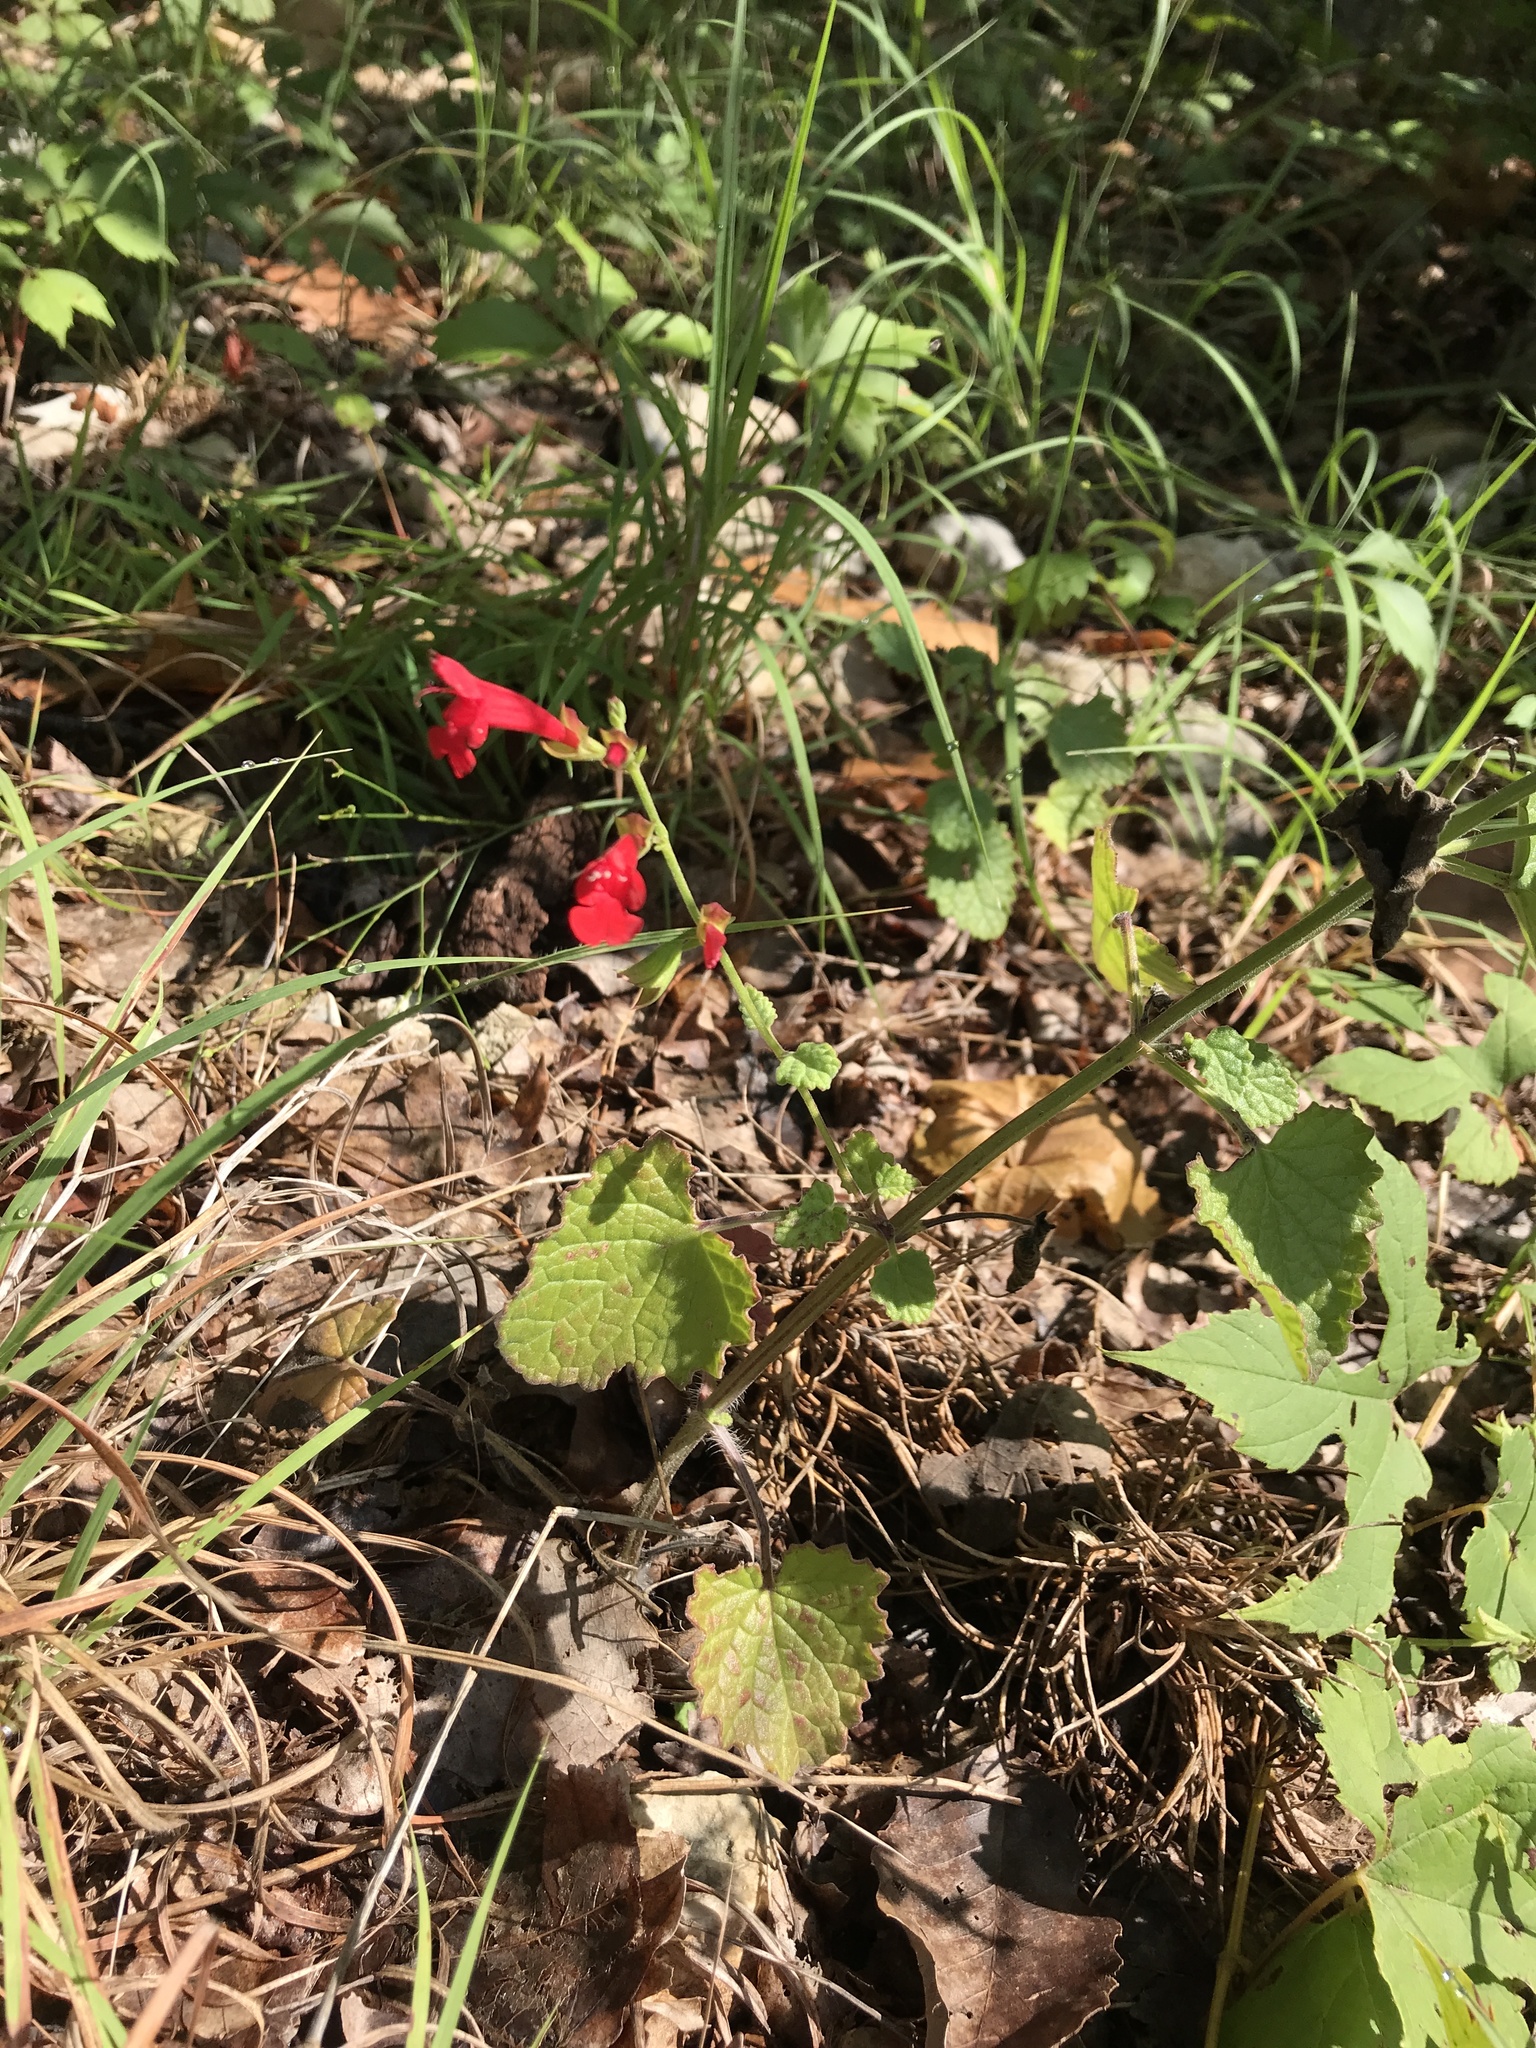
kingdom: Plantae
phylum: Tracheophyta
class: Magnoliopsida
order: Lamiales
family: Lamiaceae
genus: Salvia
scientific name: Salvia roemeriana
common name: Cedar sage
